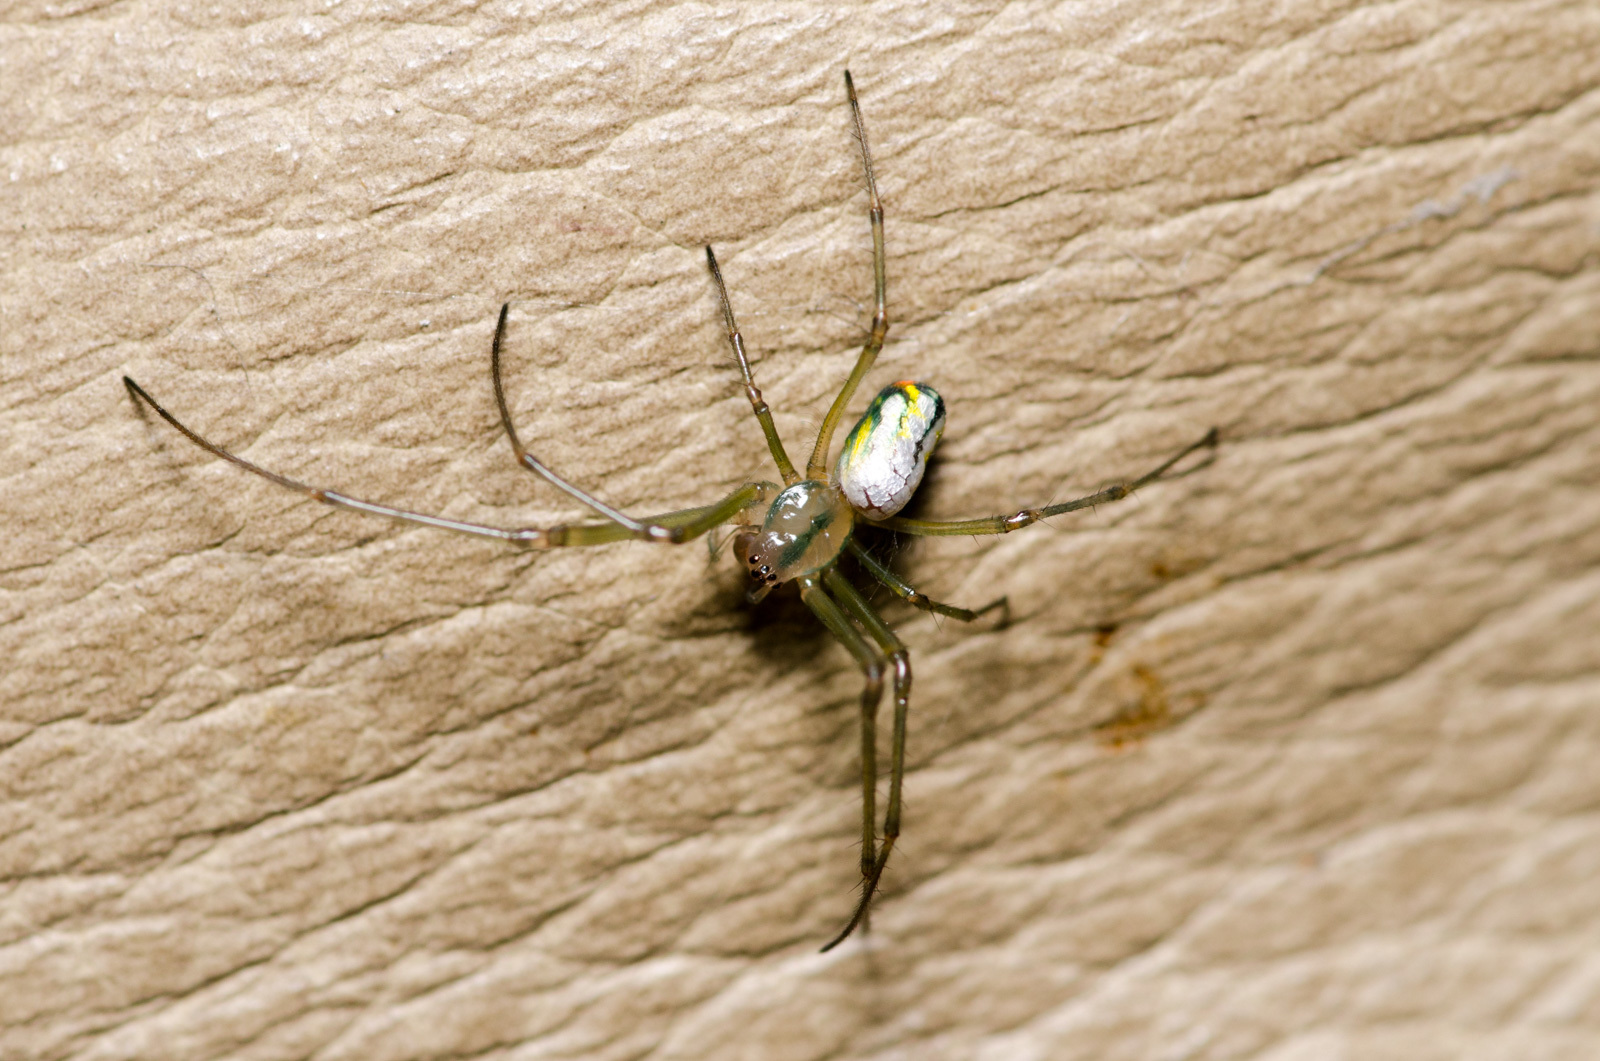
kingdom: Animalia
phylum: Arthropoda
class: Arachnida
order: Araneae
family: Tetragnathidae
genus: Leucauge
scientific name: Leucauge argyrobapta
